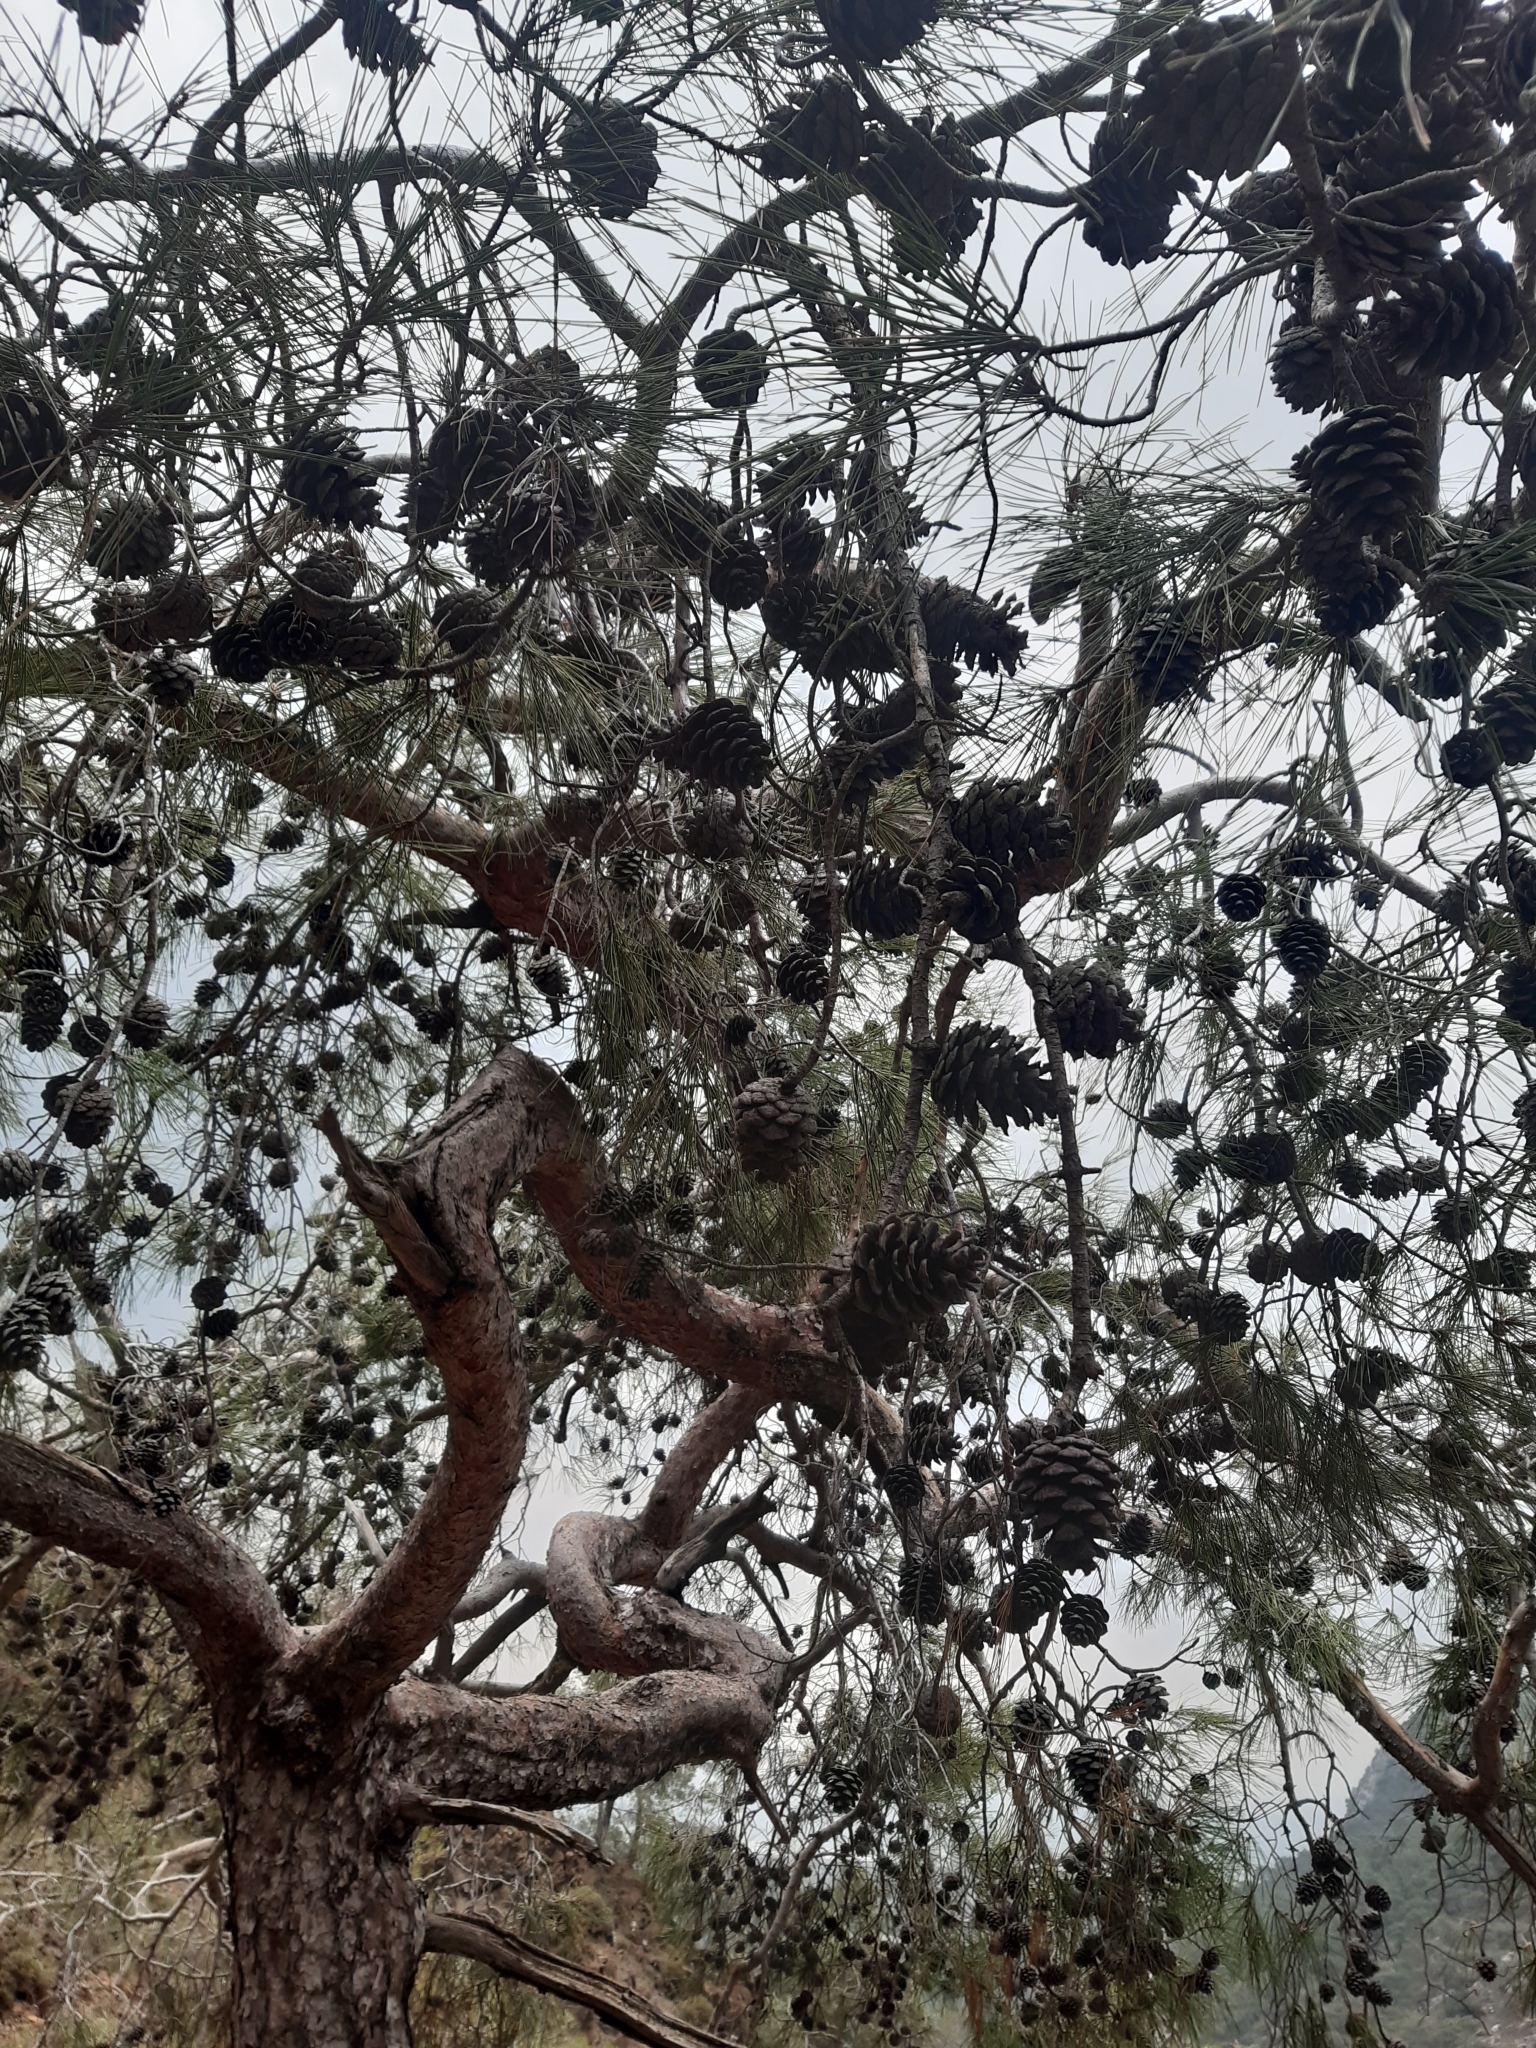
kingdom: Plantae
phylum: Tracheophyta
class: Pinopsida
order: Pinales
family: Pinaceae
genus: Pinus
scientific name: Pinus brutia
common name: Turkish pine
